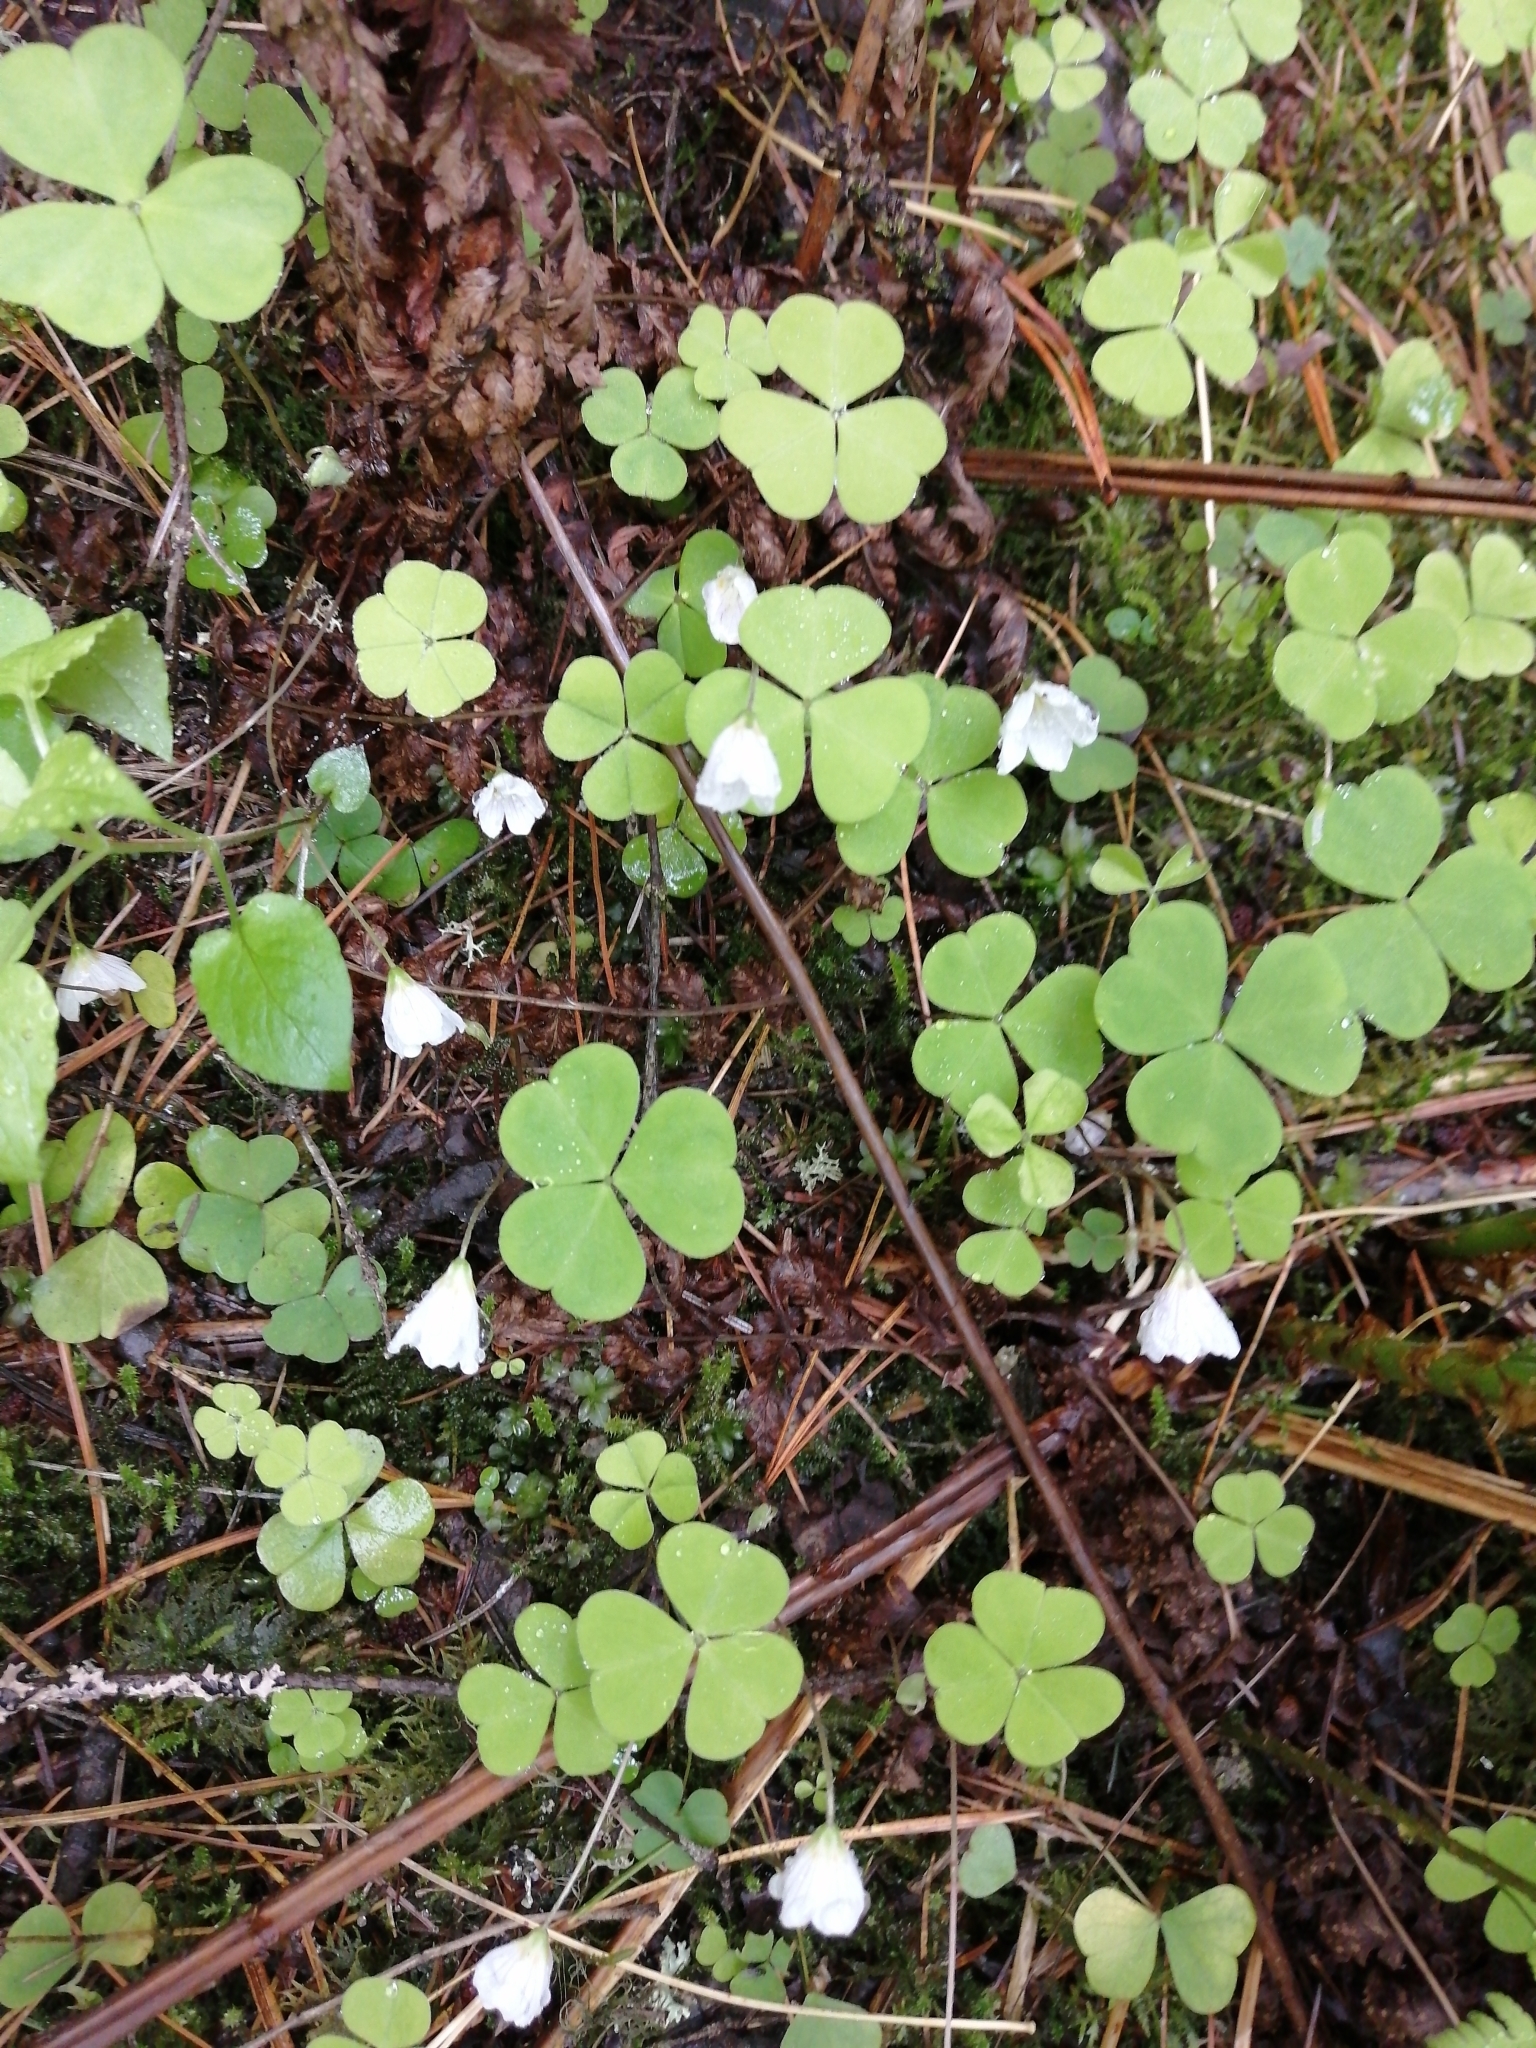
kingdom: Plantae
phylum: Tracheophyta
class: Magnoliopsida
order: Oxalidales
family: Oxalidaceae
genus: Oxalis
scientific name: Oxalis acetosella
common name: Wood-sorrel
